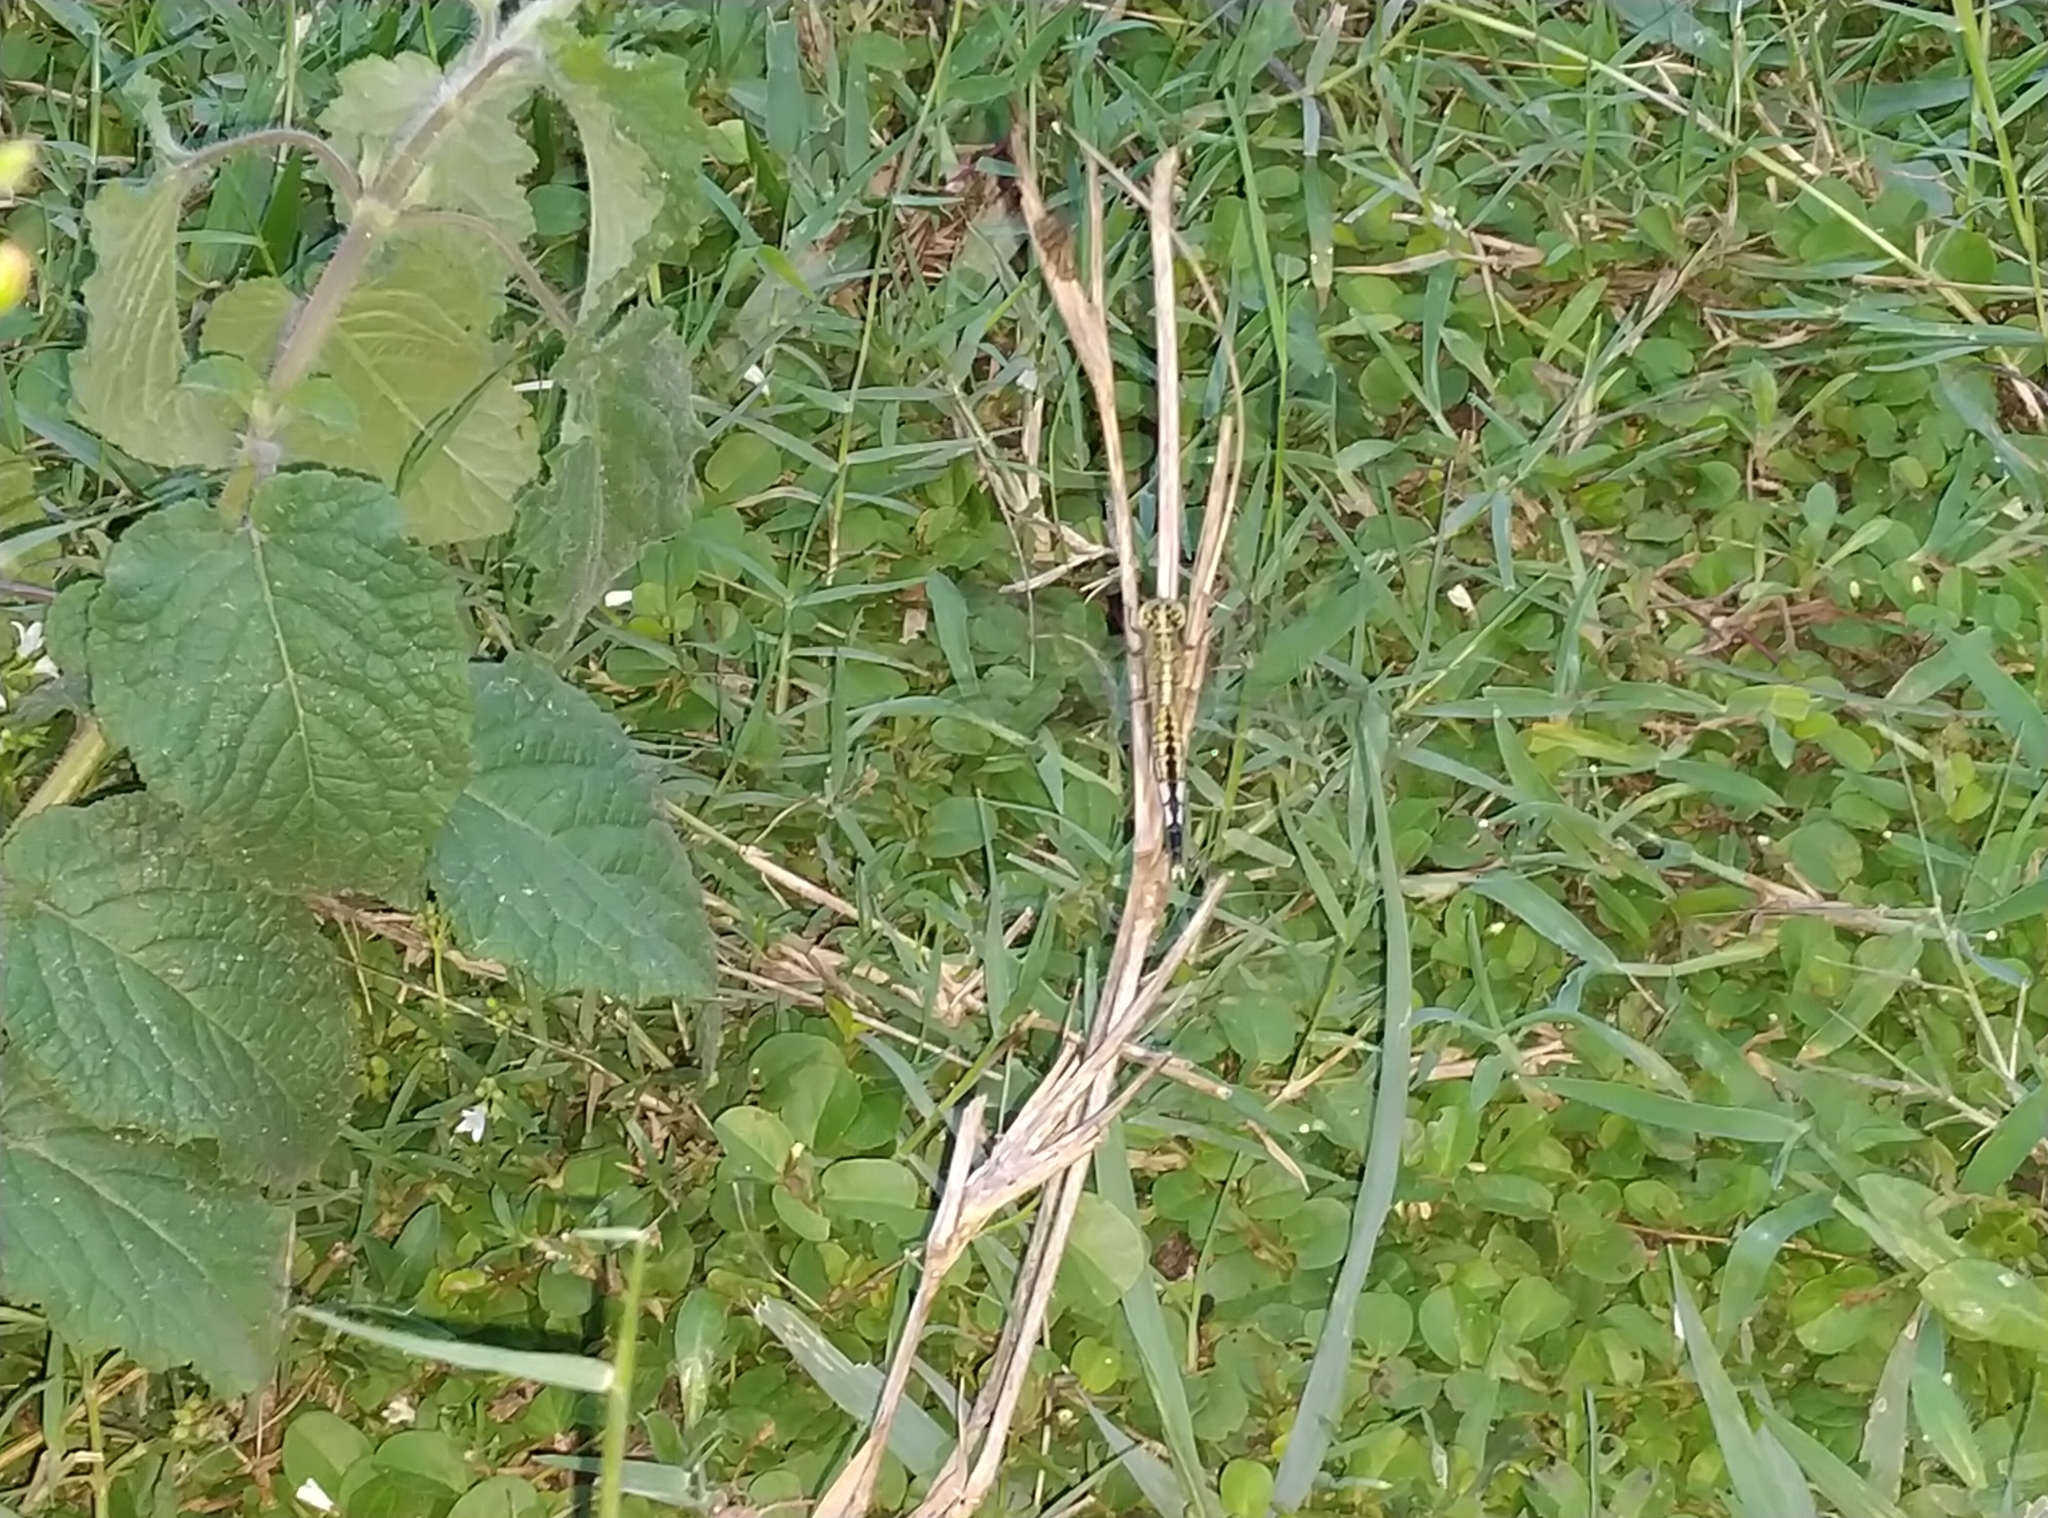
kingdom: Animalia
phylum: Arthropoda
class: Insecta
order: Odonata
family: Libellulidae
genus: Acisoma
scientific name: Acisoma panorpoides
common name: Asian pintail
